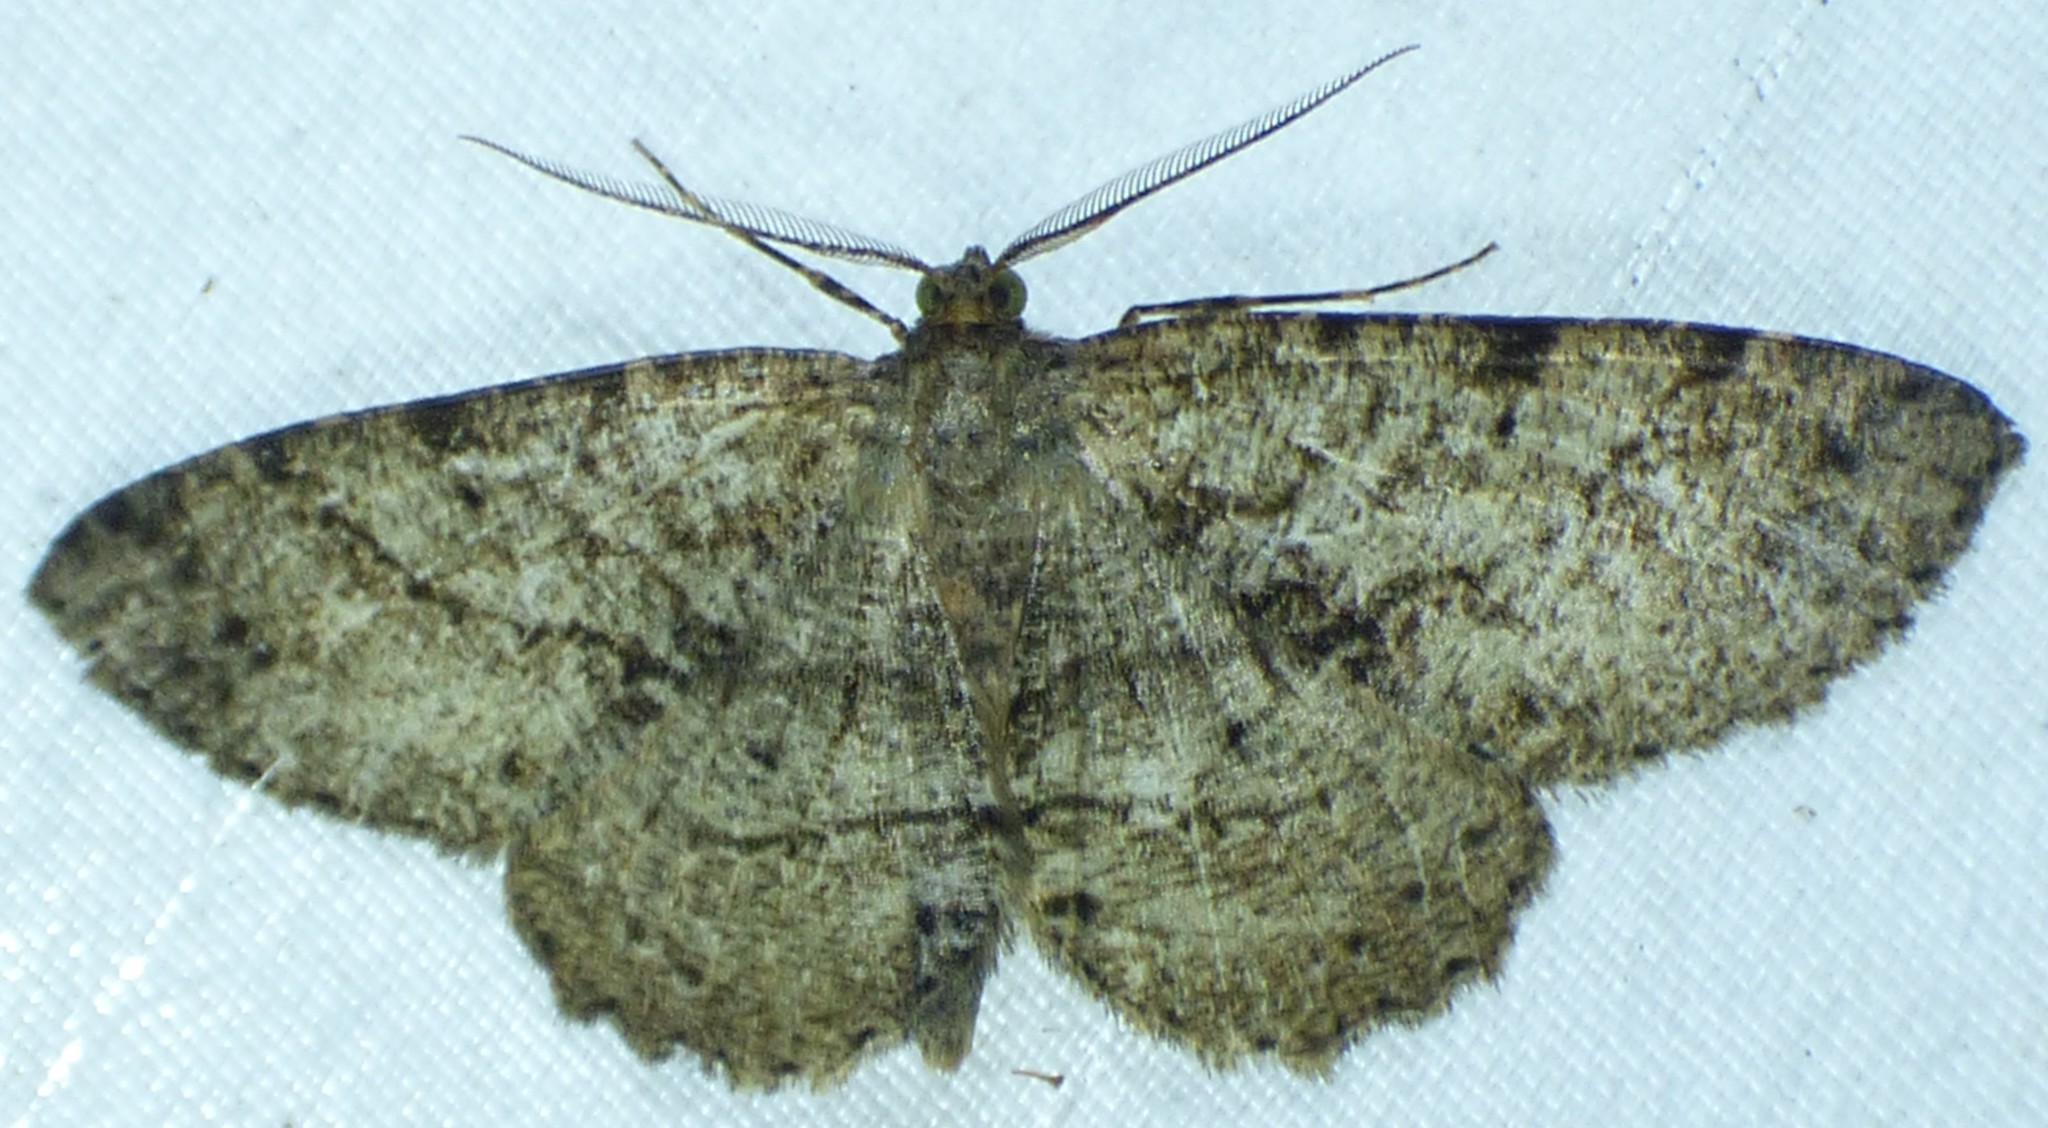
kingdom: Animalia
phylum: Arthropoda
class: Insecta
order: Lepidoptera
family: Geometridae
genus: Melanolophia
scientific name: Melanolophia canadaria
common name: Canadian melanolophia
